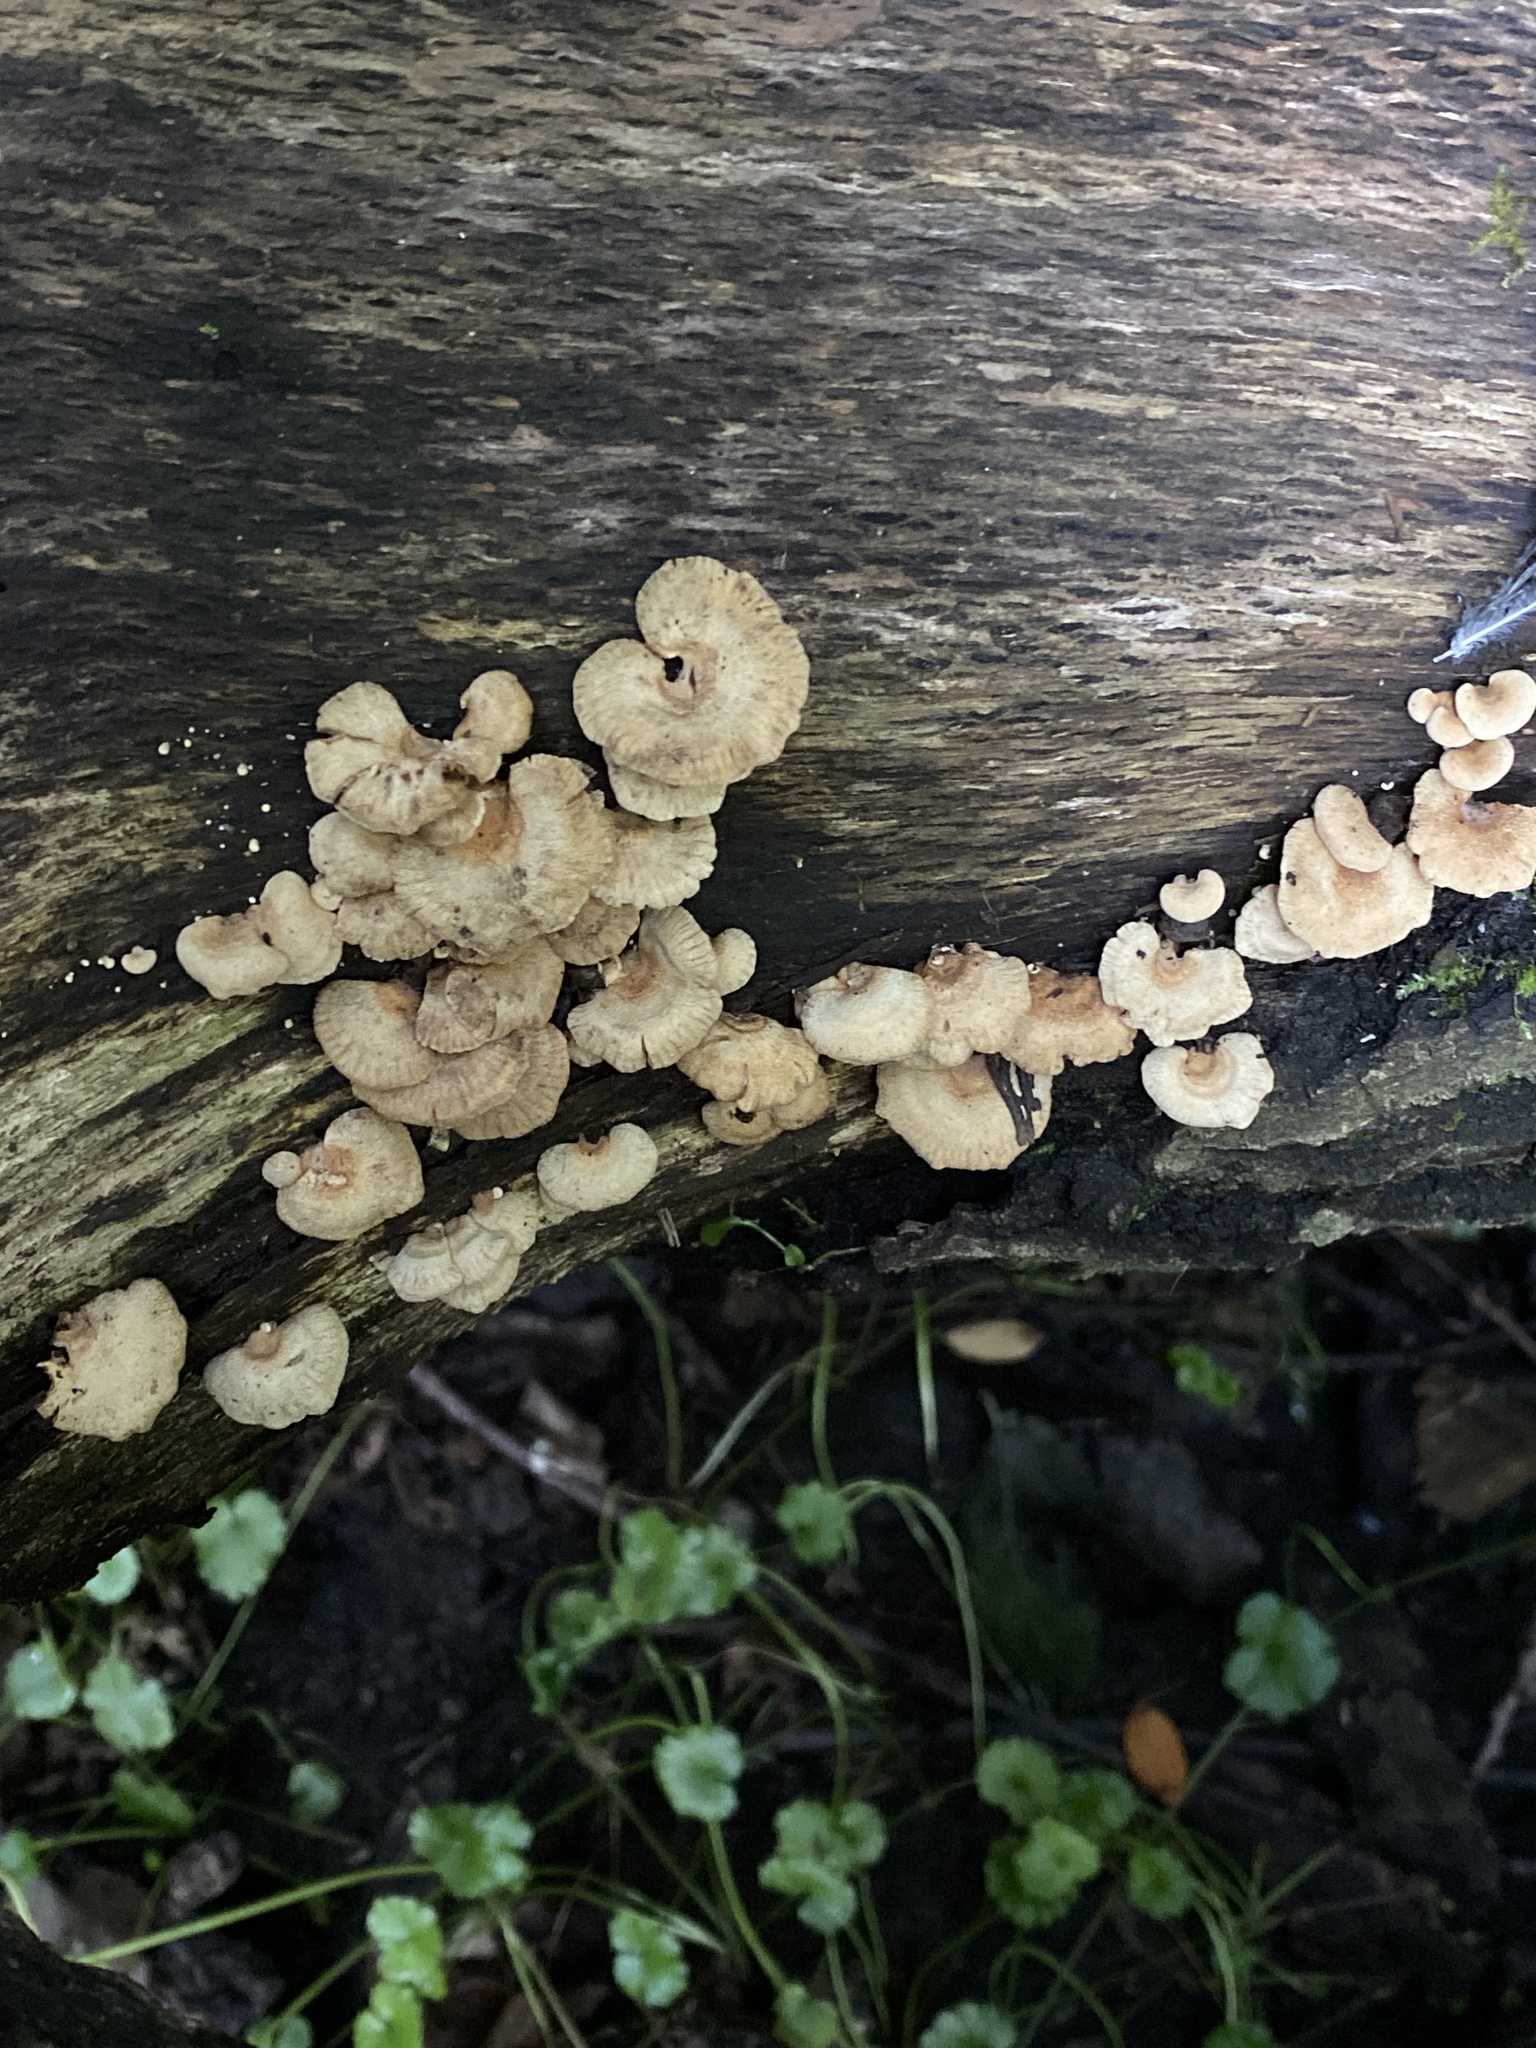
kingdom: Fungi
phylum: Basidiomycota
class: Agaricomycetes
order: Agaricales
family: Mycenaceae
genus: Panellus
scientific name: Panellus stipticus
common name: Bitter oysterling
